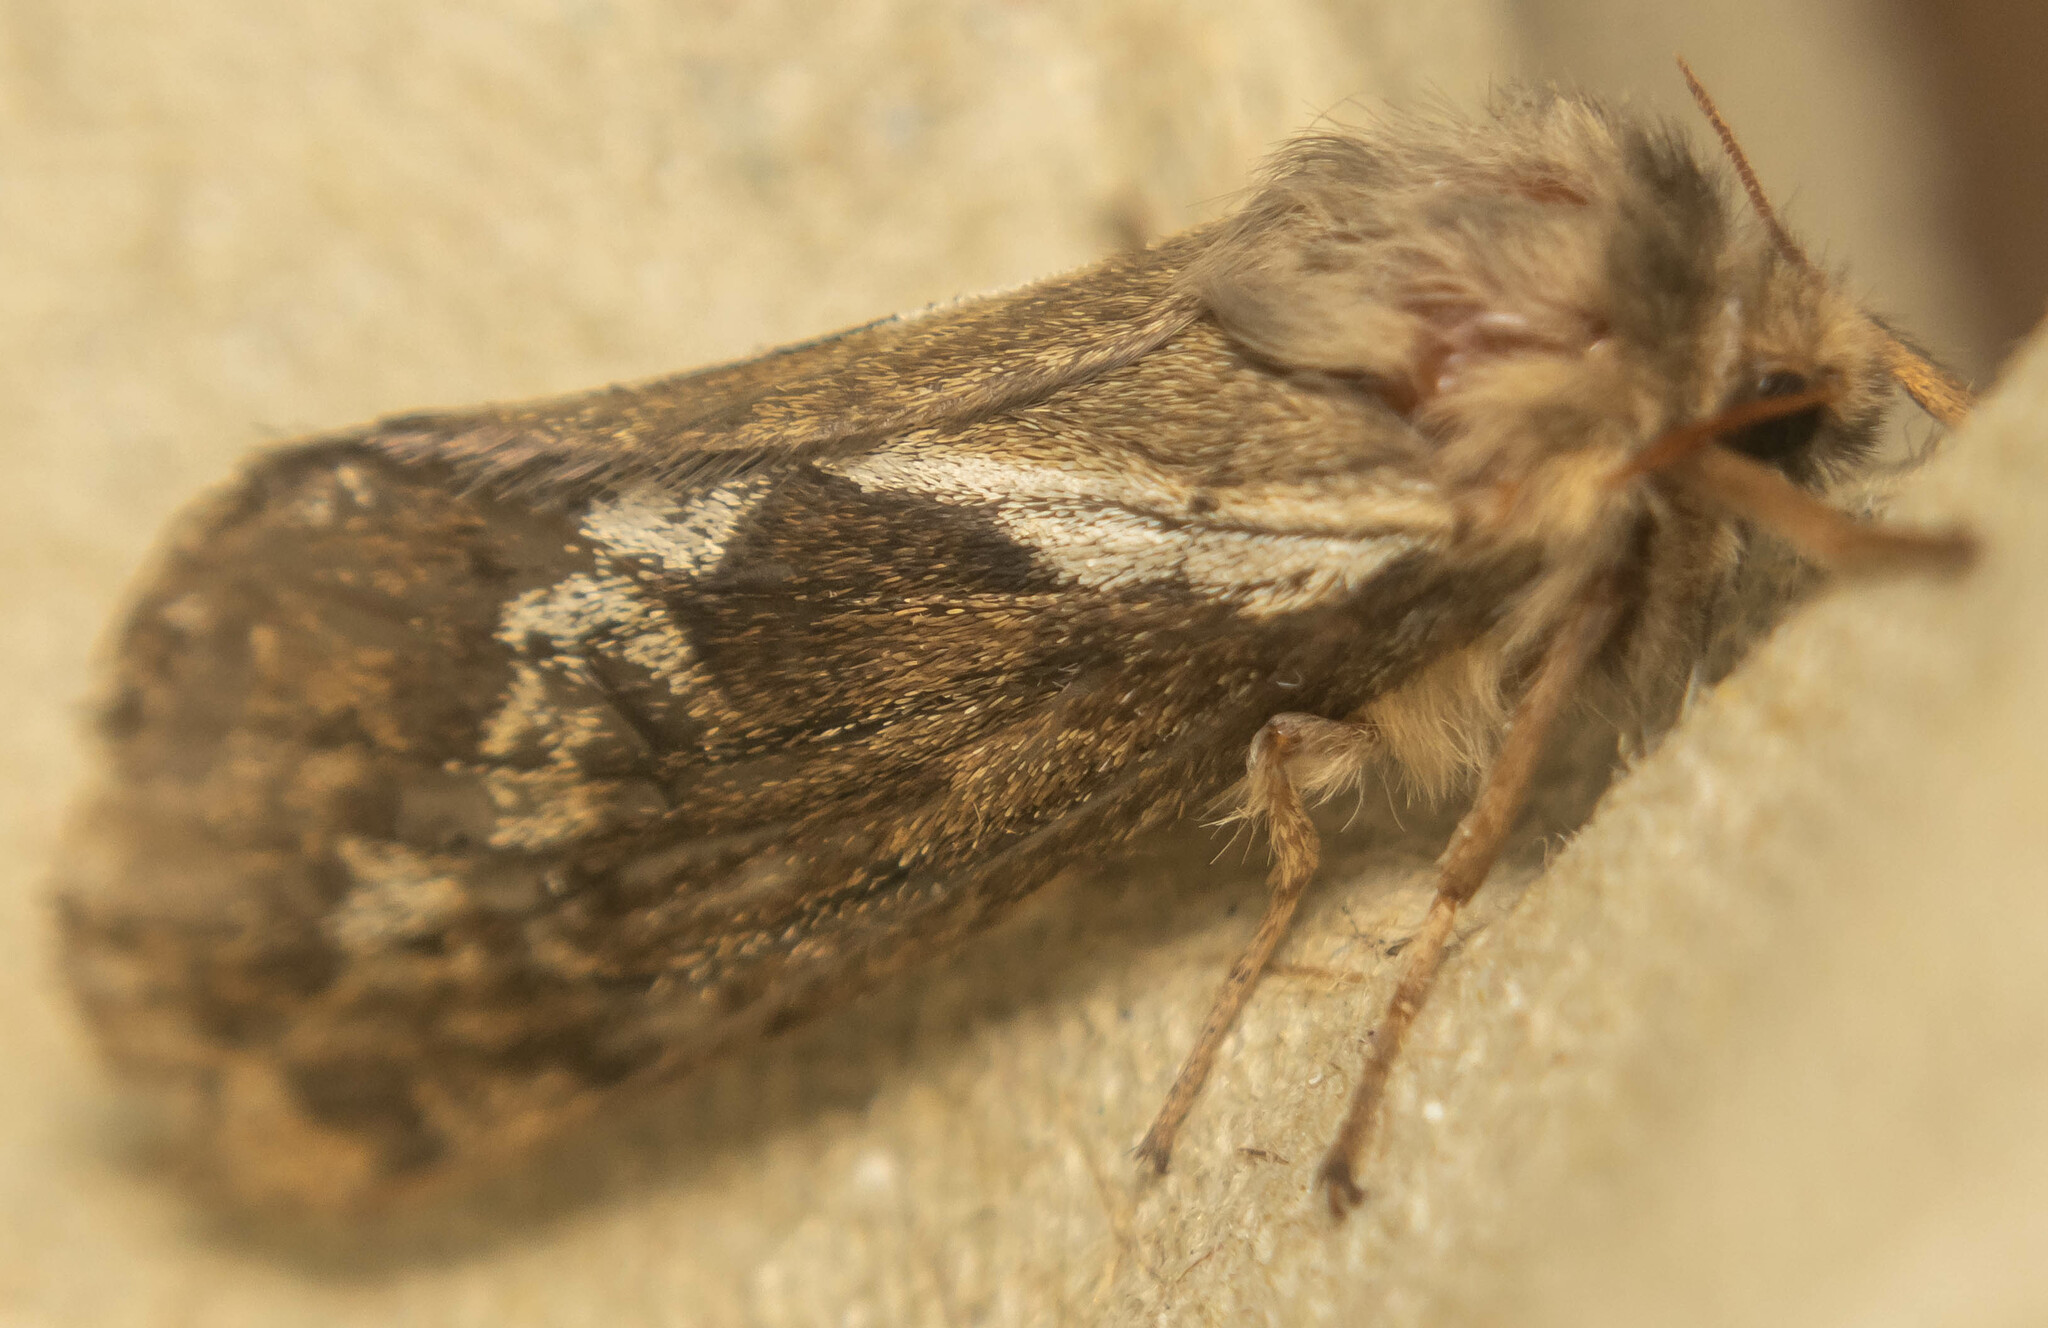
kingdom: Animalia
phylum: Arthropoda
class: Insecta
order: Lepidoptera
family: Hepialidae
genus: Korscheltellus
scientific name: Korscheltellus lupulina
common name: Common swift
